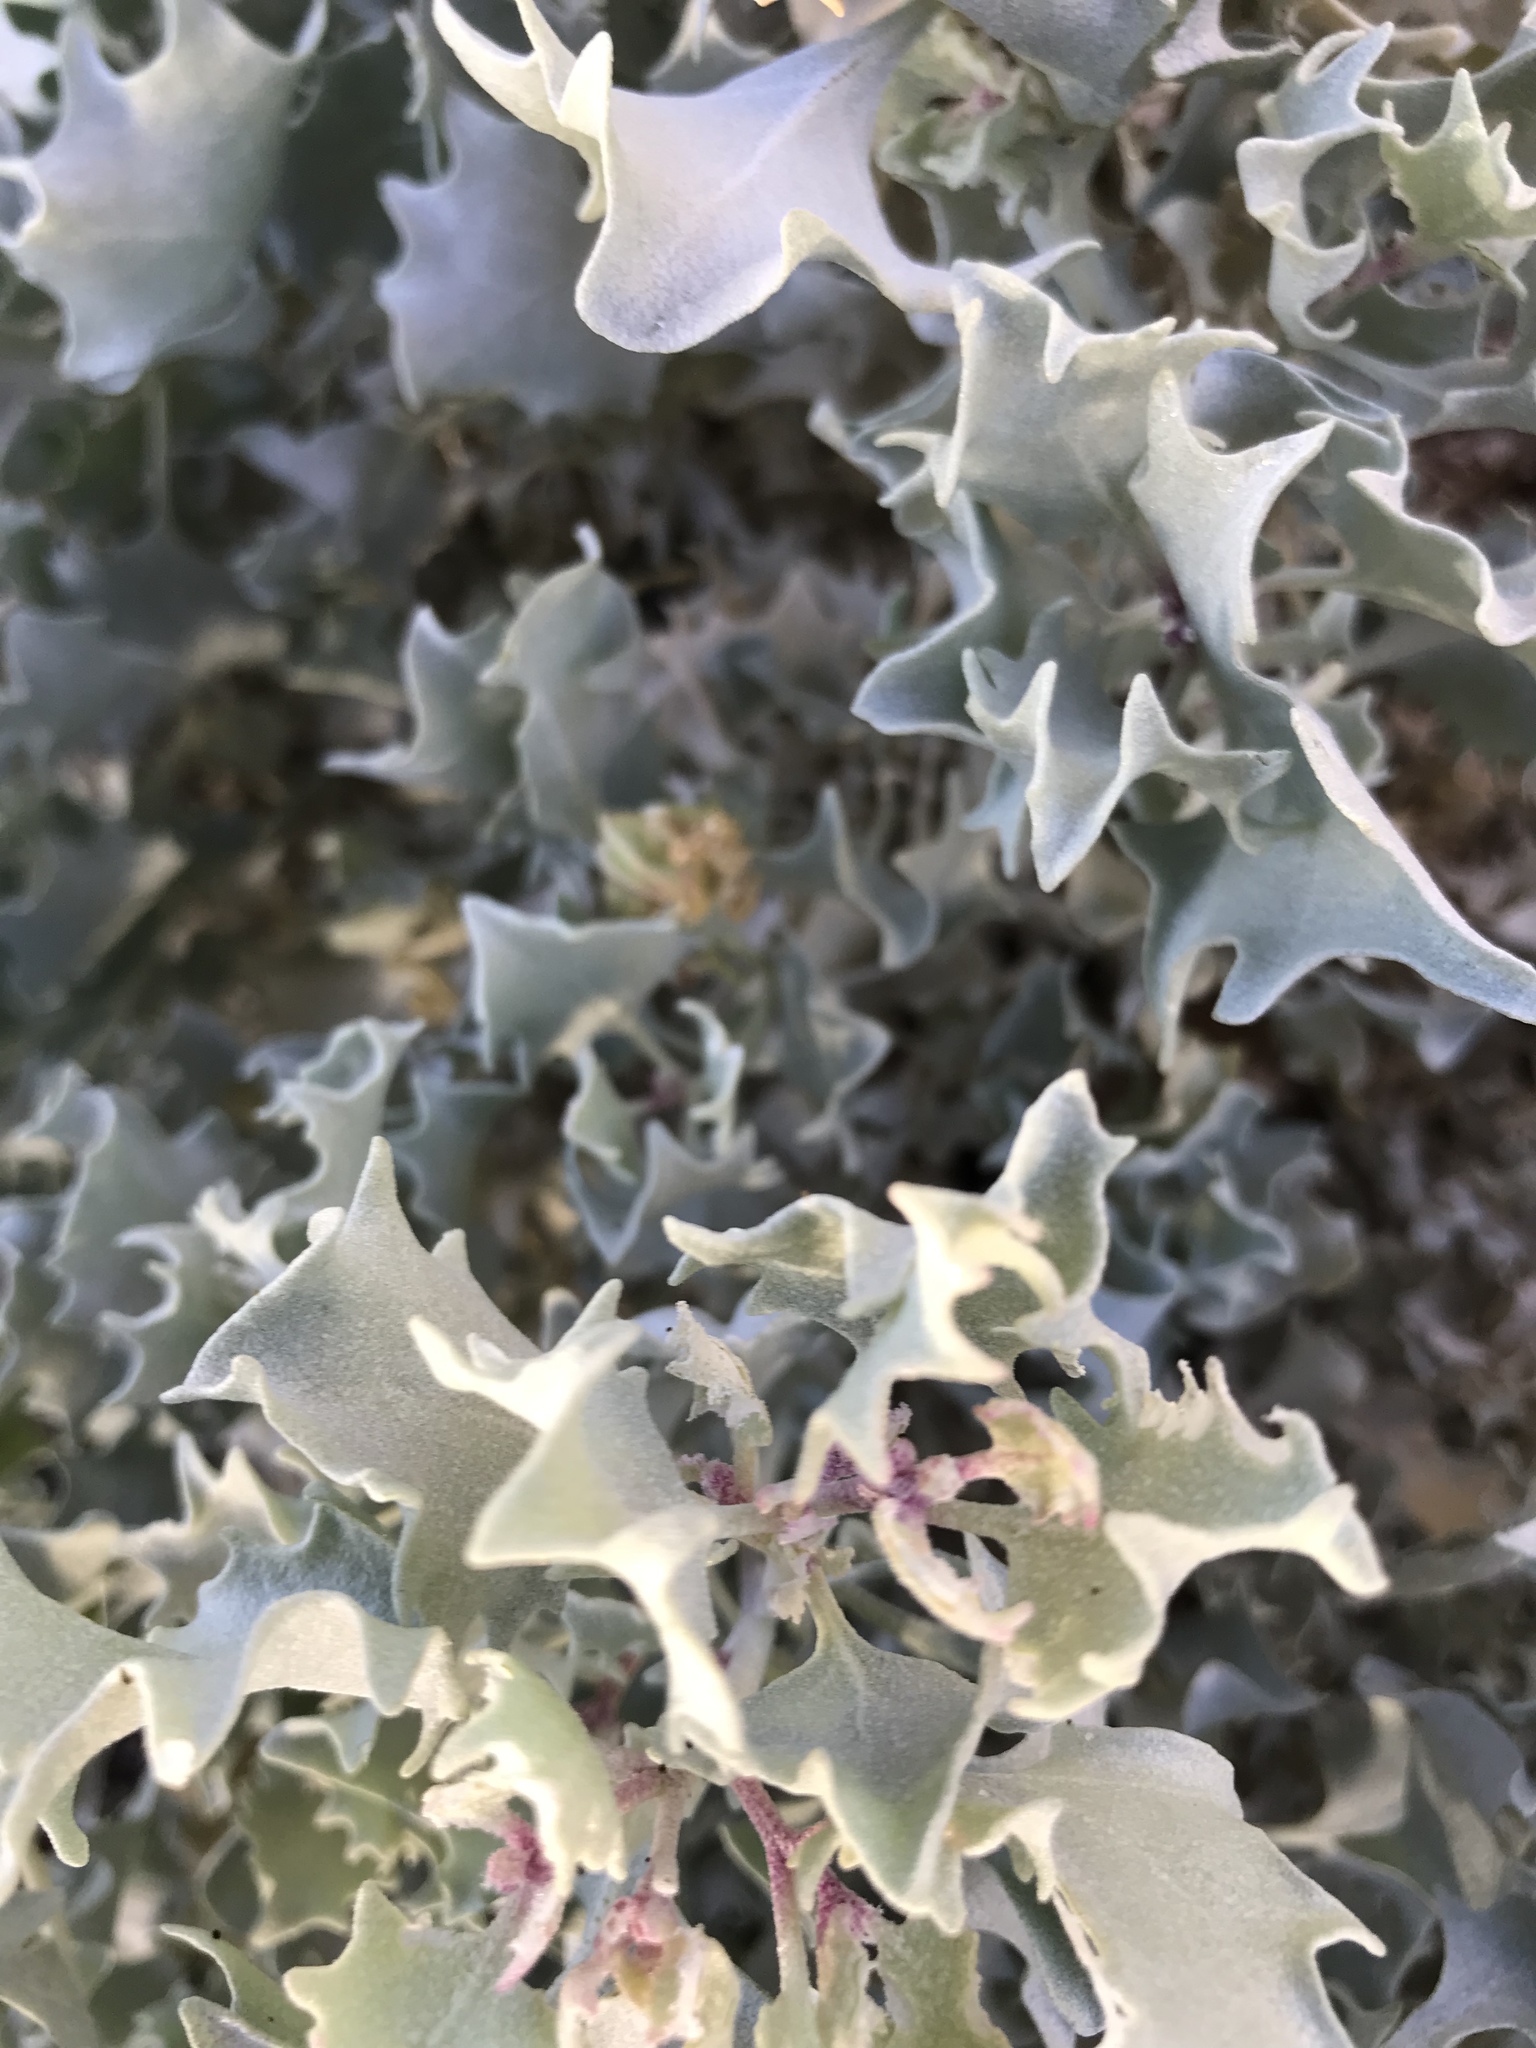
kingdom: Plantae
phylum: Tracheophyta
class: Magnoliopsida
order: Caryophyllales
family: Amaranthaceae
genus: Atriplex
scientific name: Atriplex hymenelytra
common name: Desert-holly
